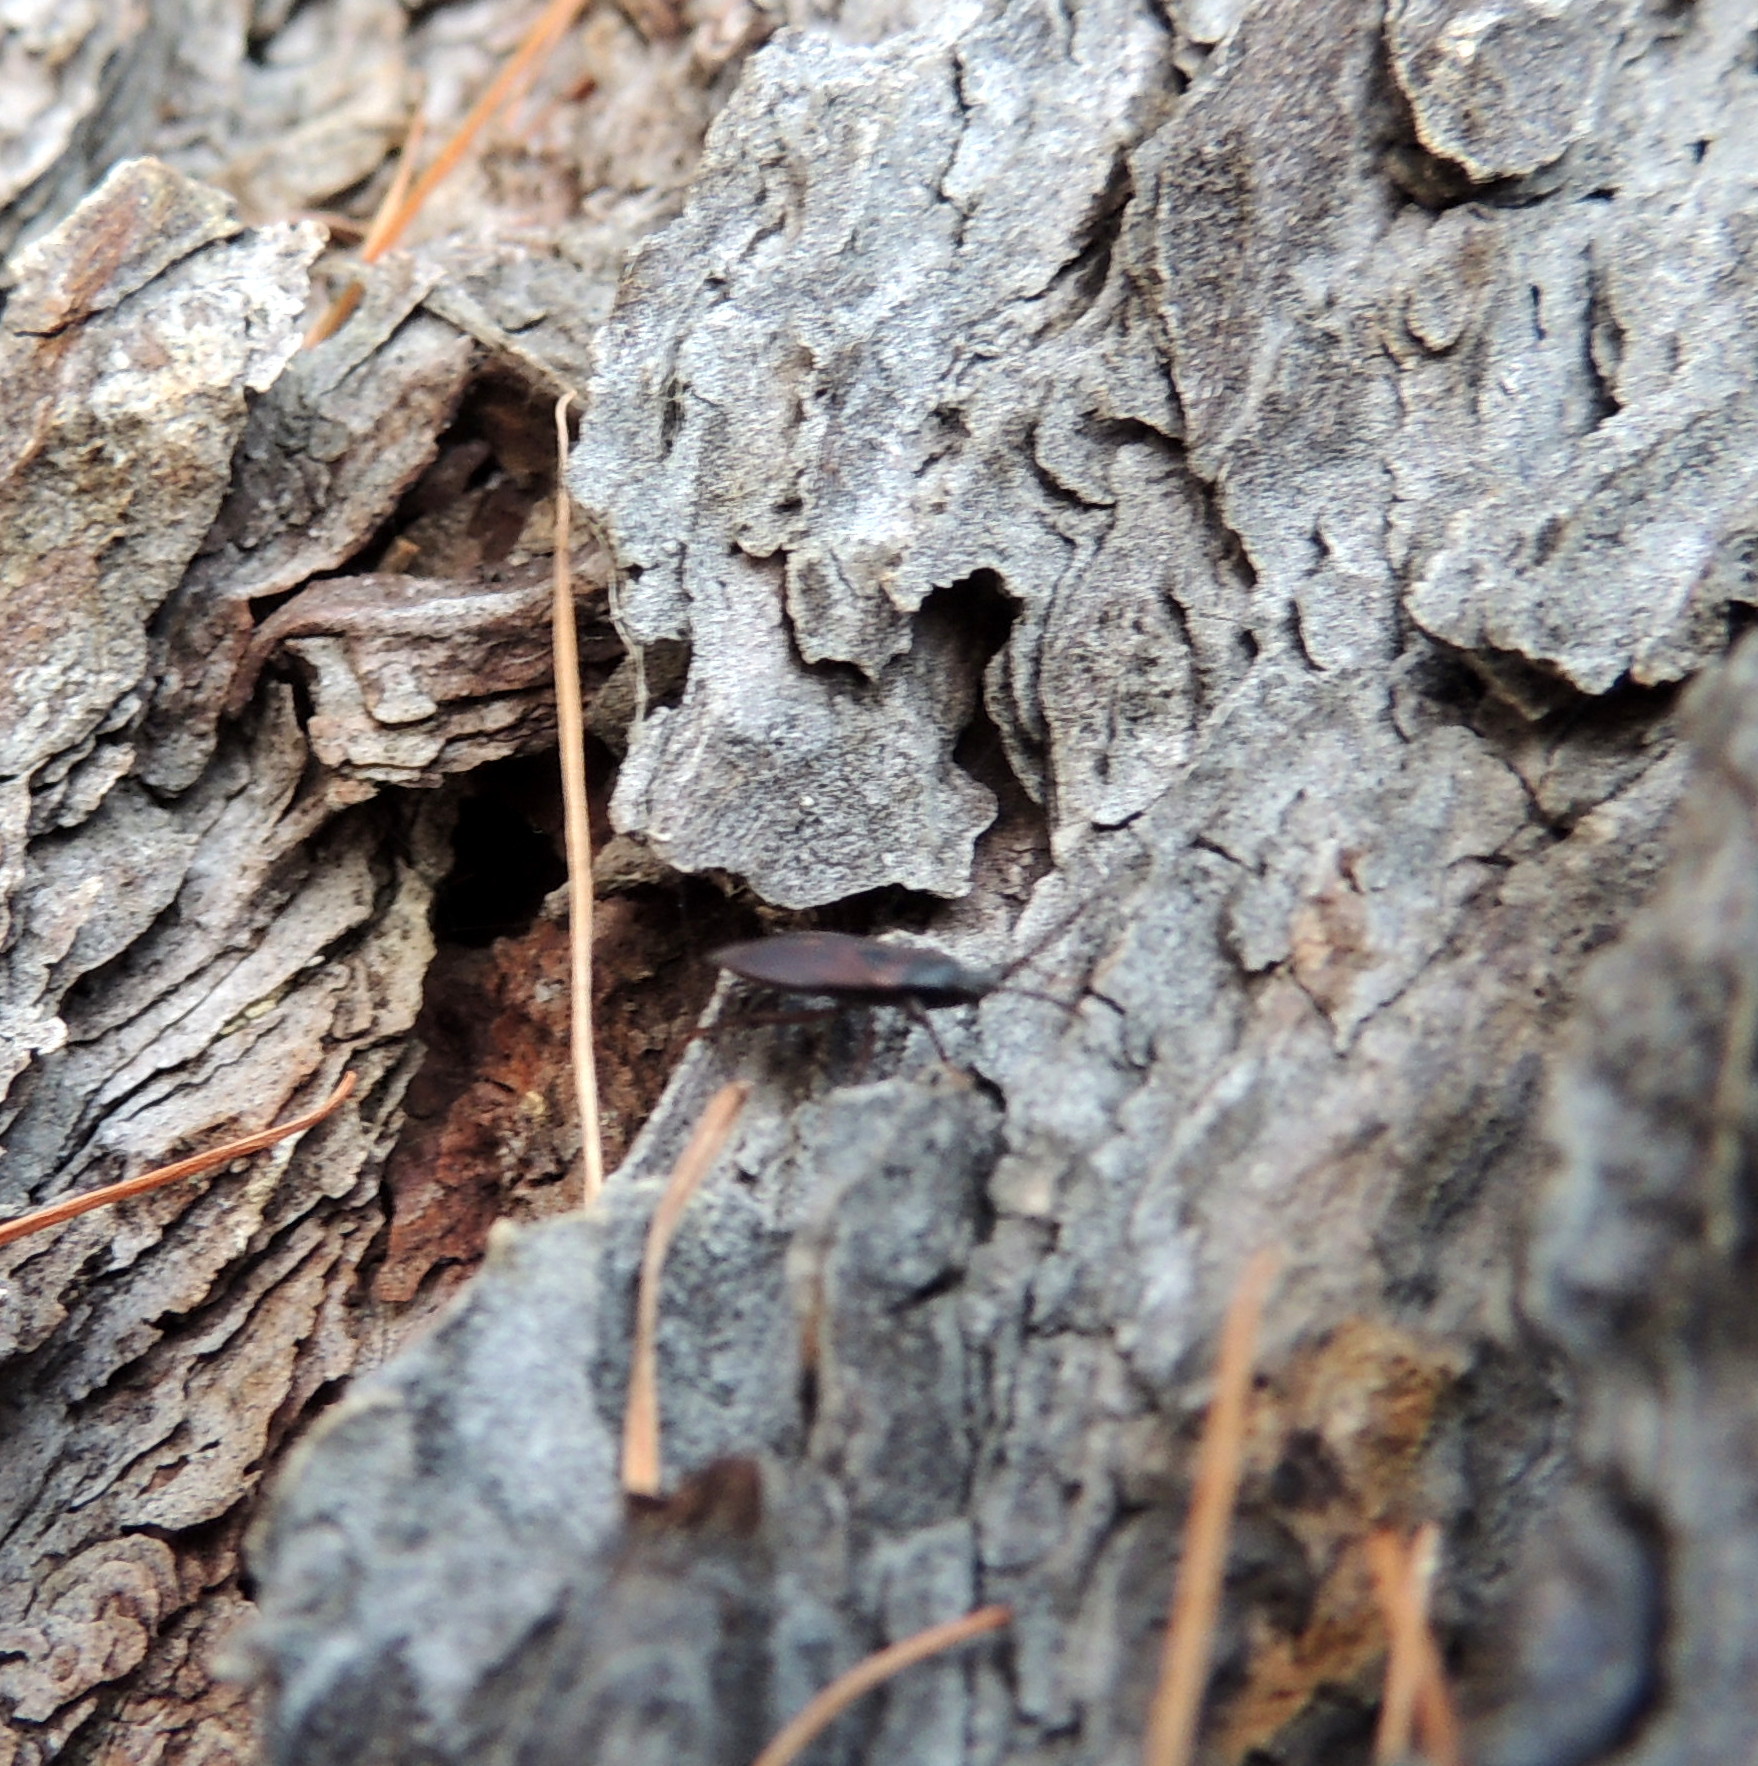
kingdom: Animalia
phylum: Arthropoda
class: Insecta
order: Hemiptera
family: Rhyparochromidae
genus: Gastrodes
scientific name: Gastrodes grossipes
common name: Pine cone bug
